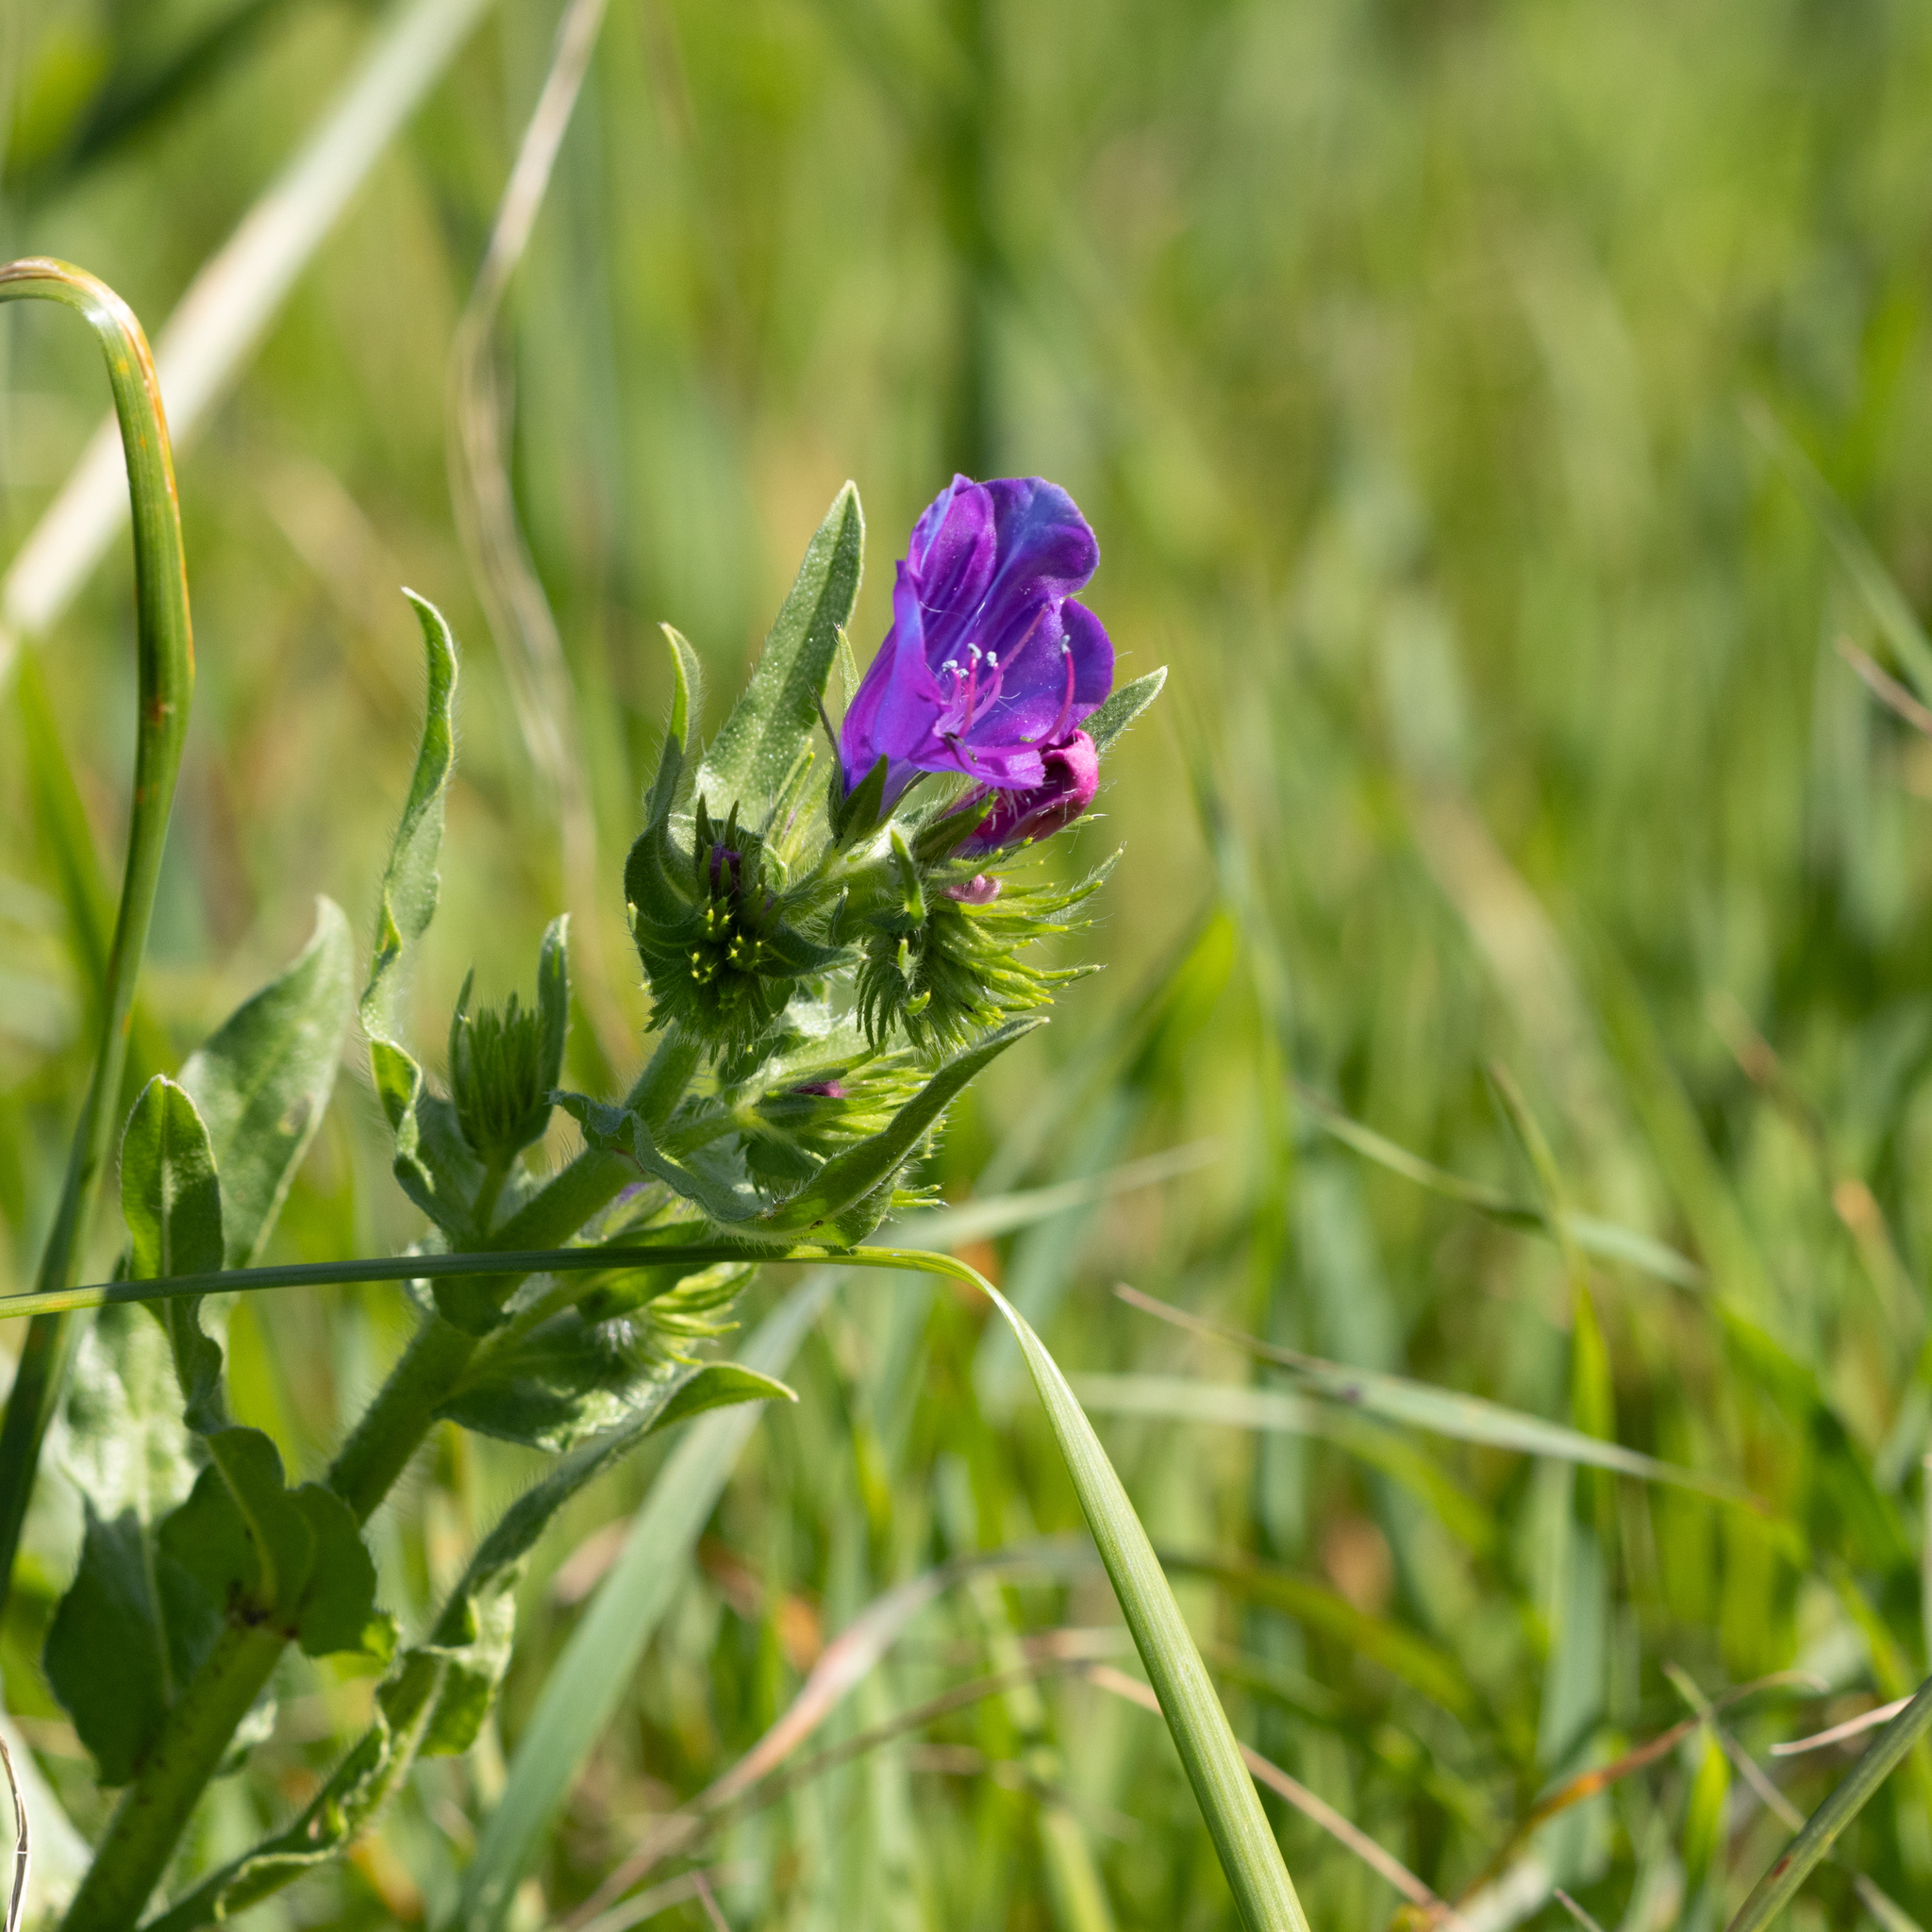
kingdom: Plantae
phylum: Tracheophyta
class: Magnoliopsida
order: Boraginales
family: Boraginaceae
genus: Echium
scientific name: Echium plantagineum
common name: Purple viper's-bugloss
